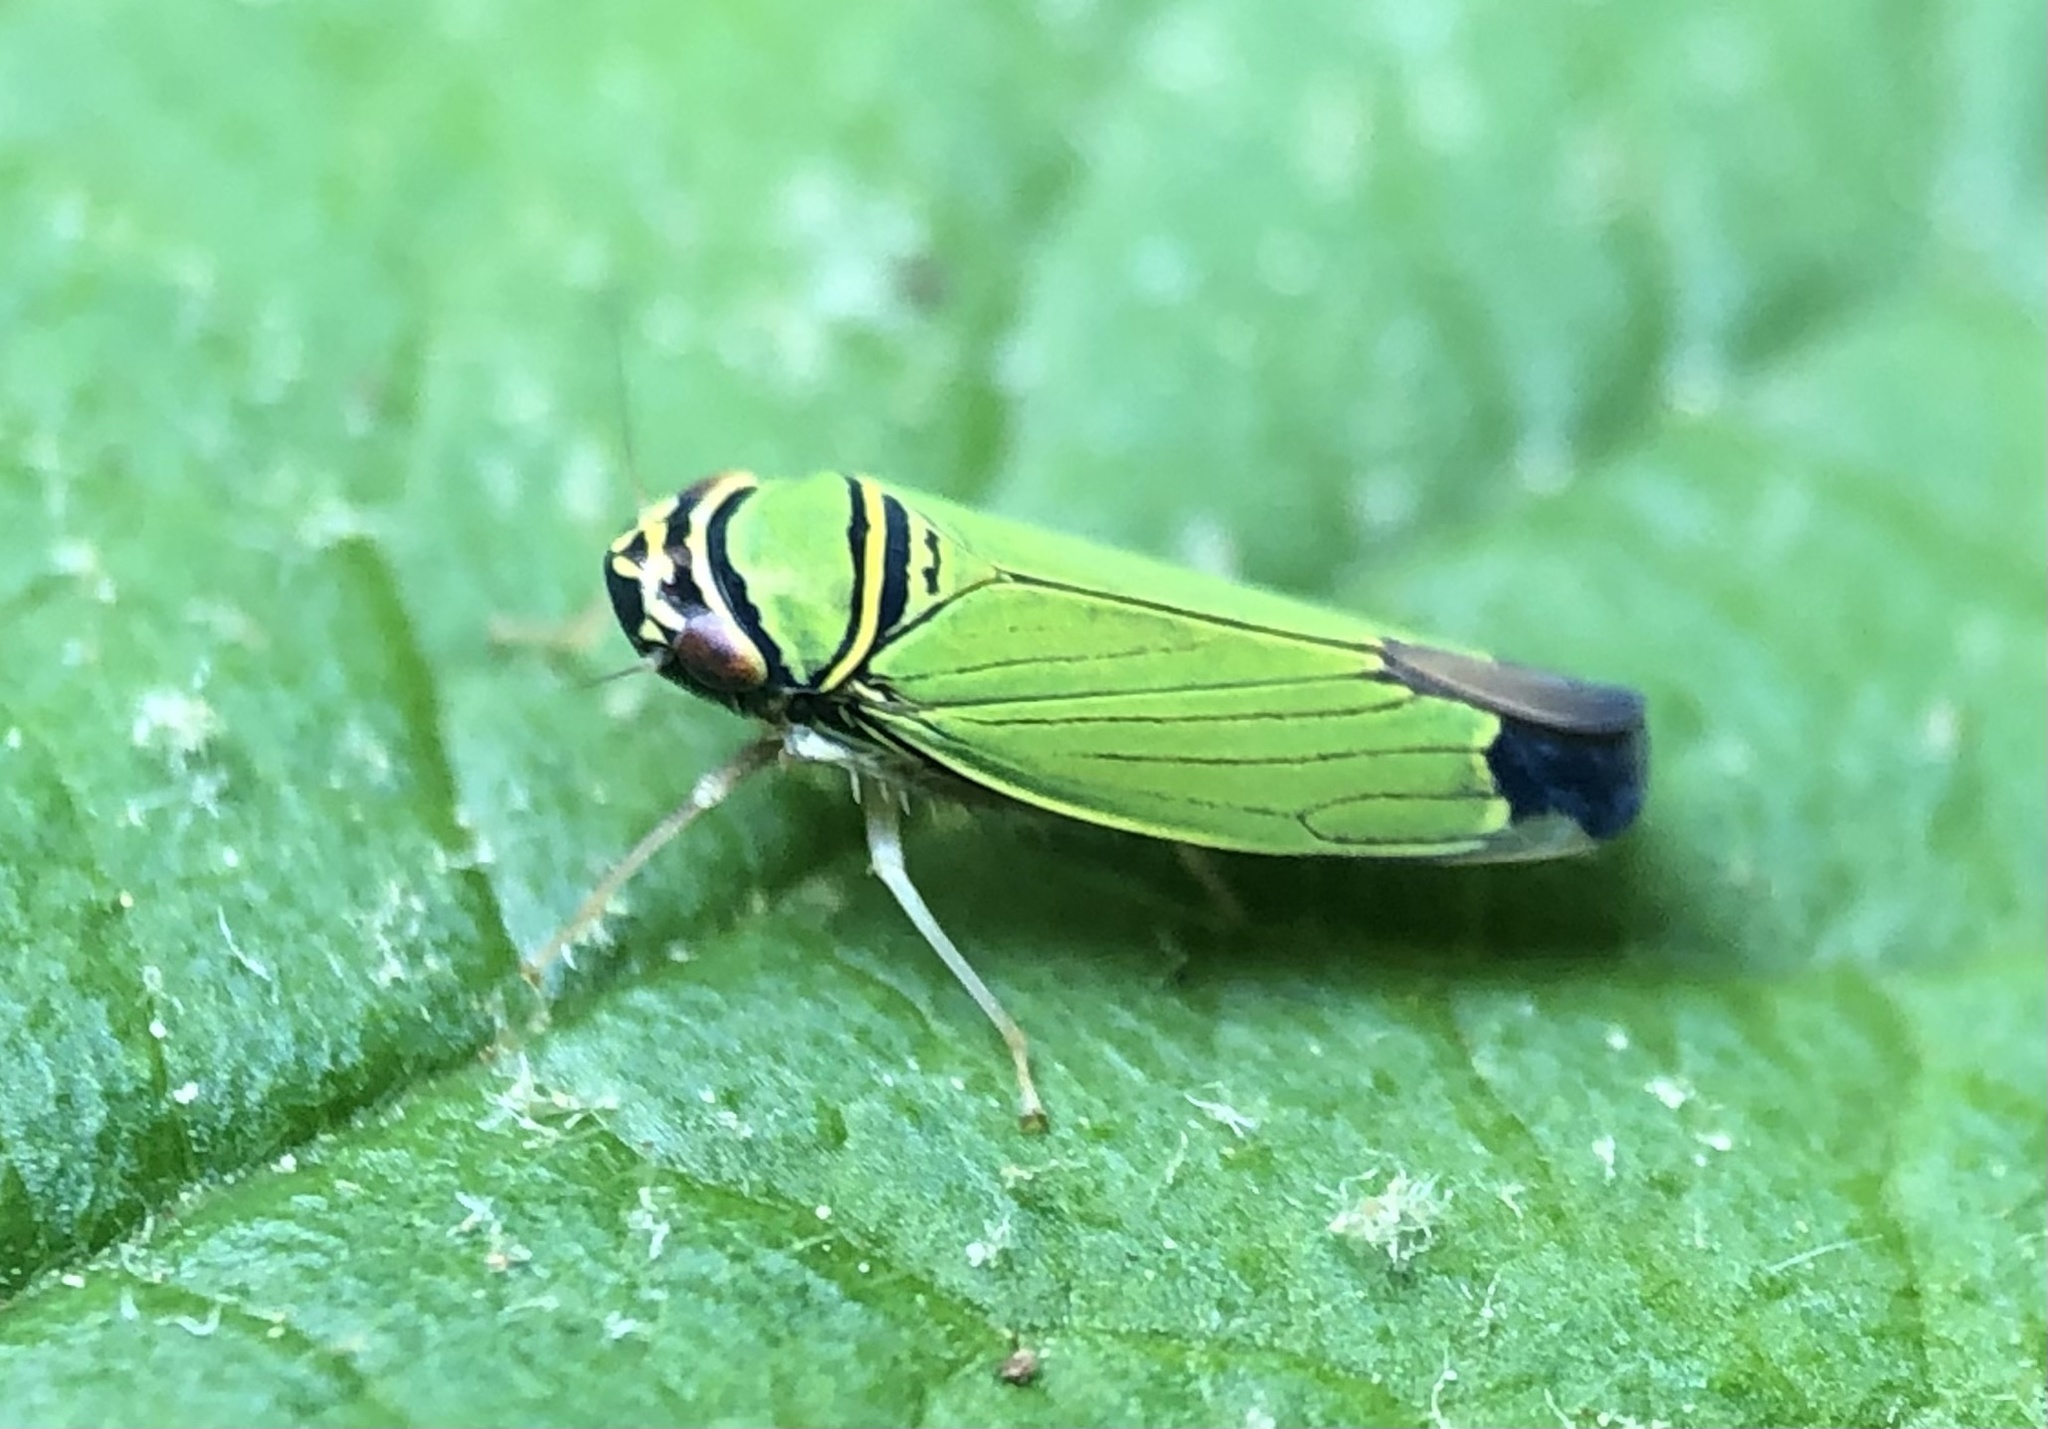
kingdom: Animalia
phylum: Arthropoda
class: Insecta
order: Hemiptera
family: Cicadellidae
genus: Tylozygus
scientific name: Tylozygus geometricus
